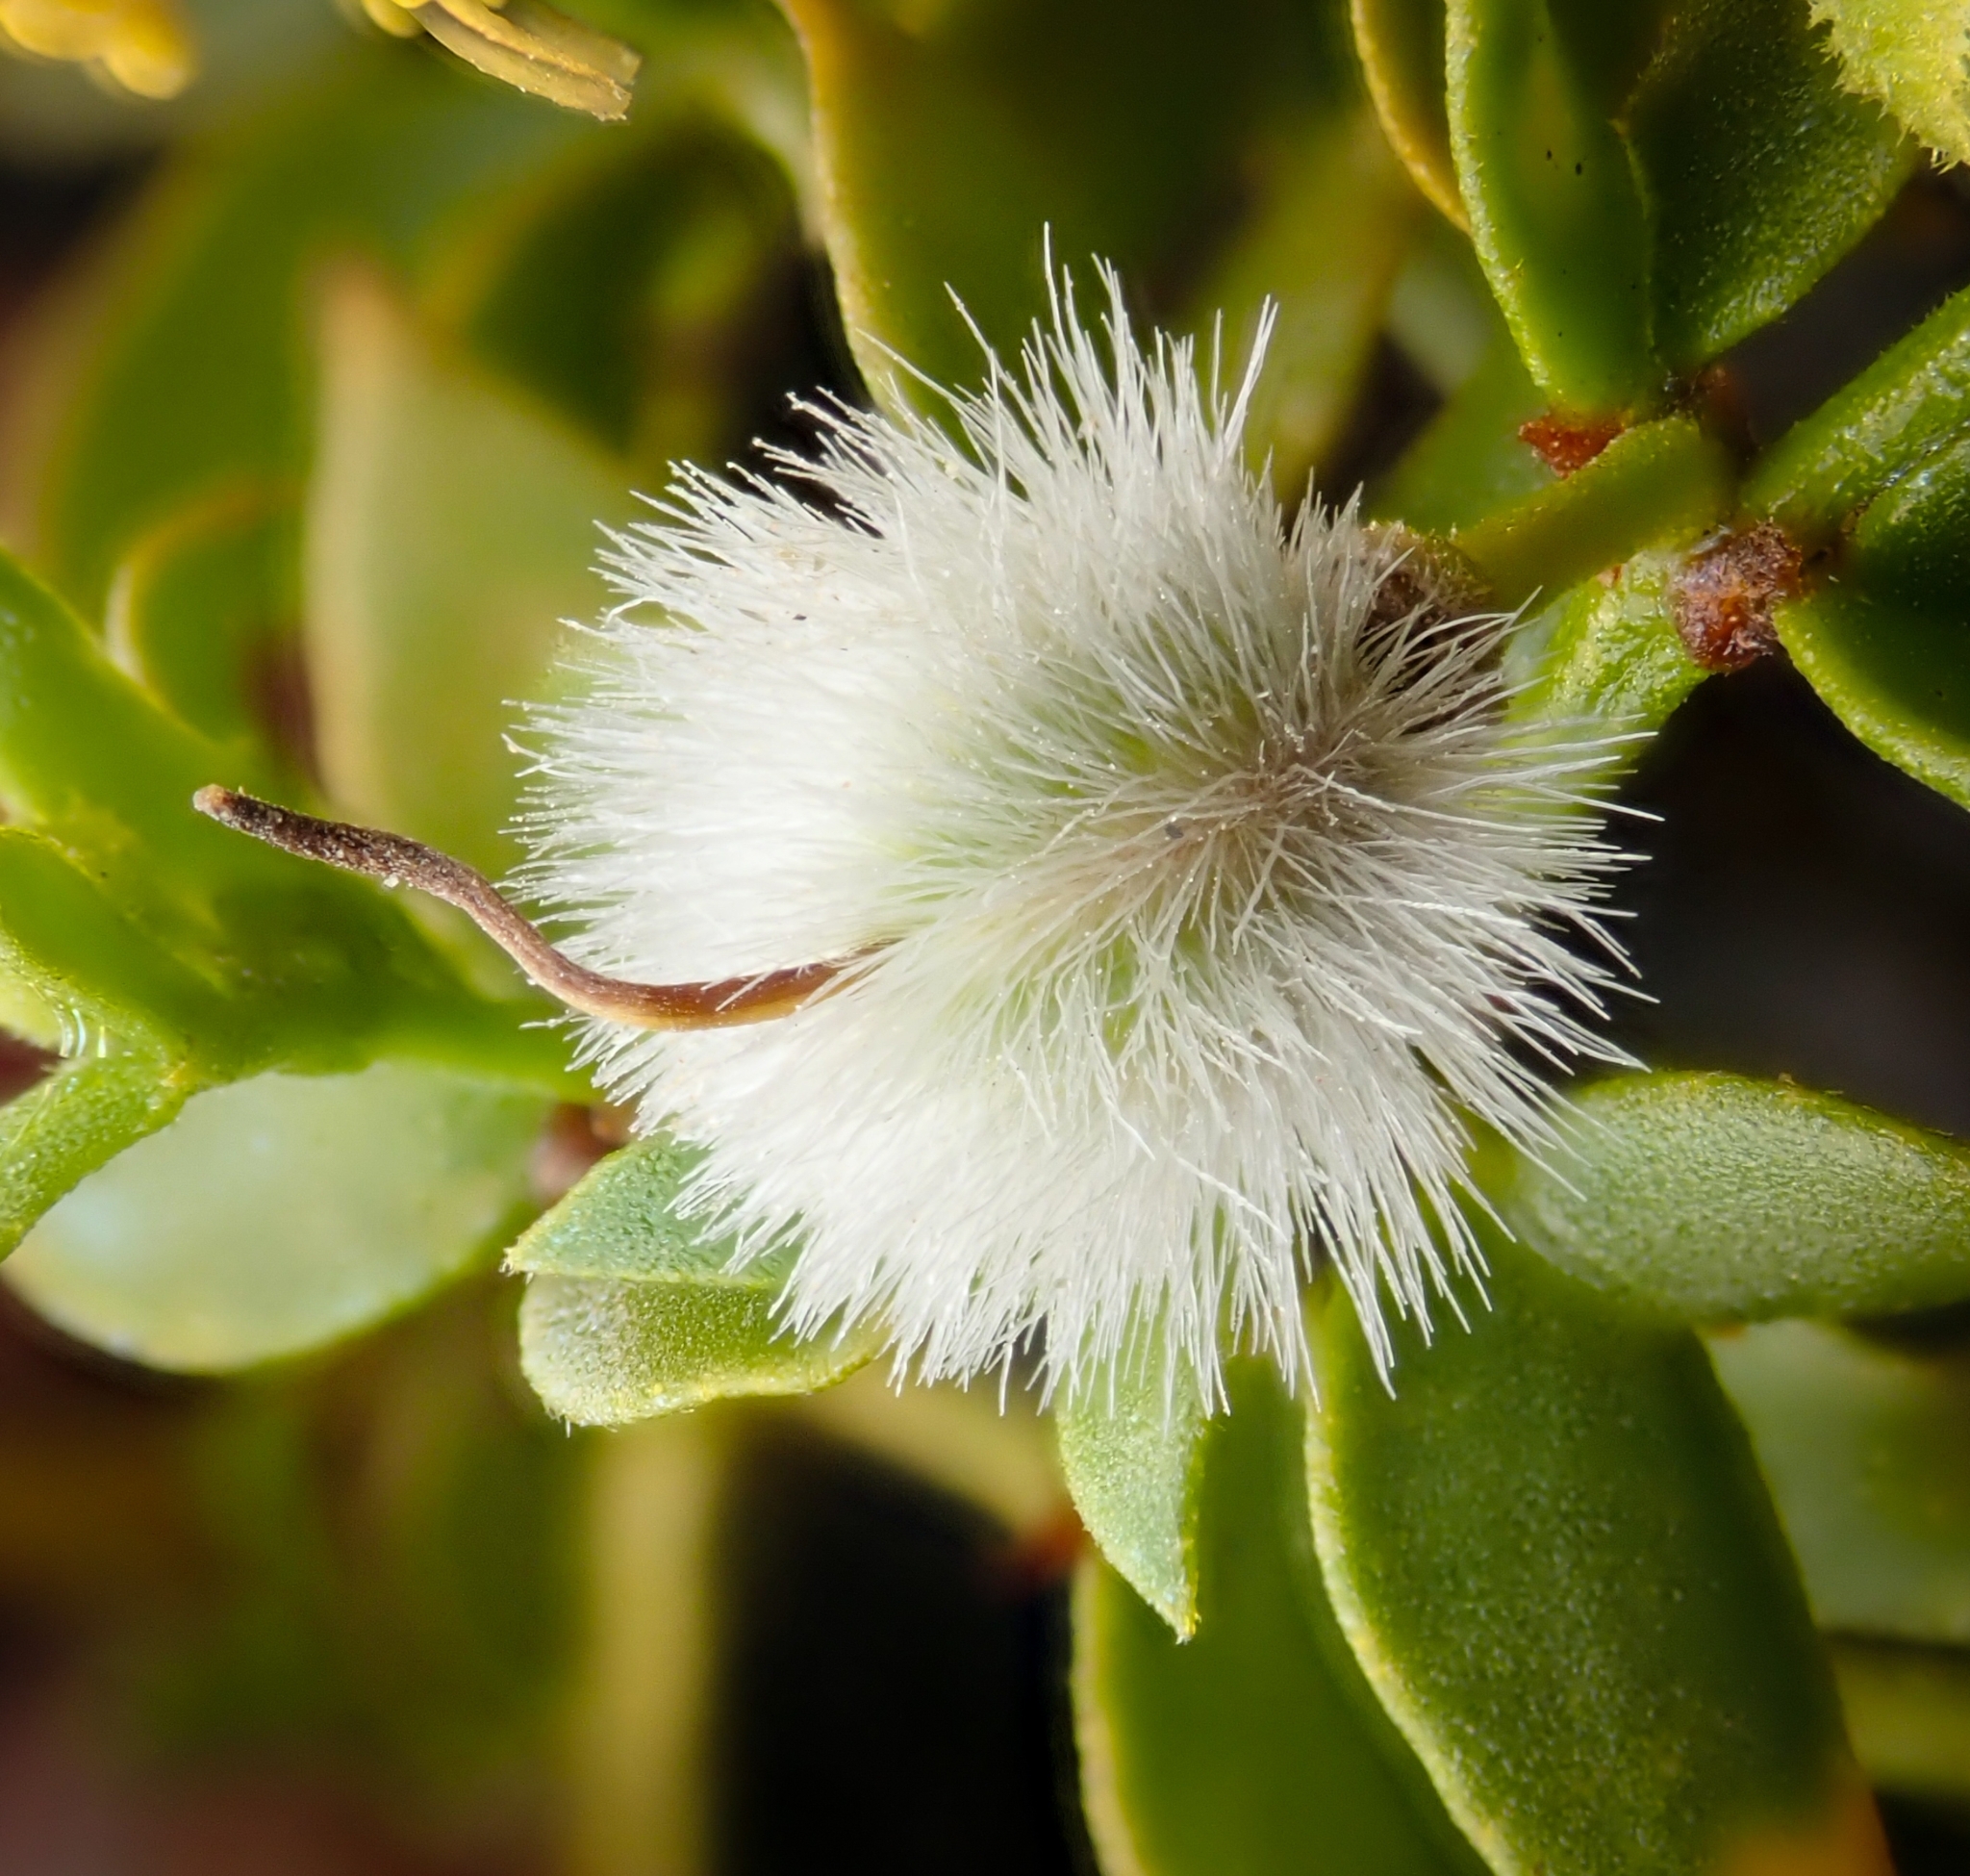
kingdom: Plantae
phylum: Tracheophyta
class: Magnoliopsida
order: Zygophyllales
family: Zygophyllaceae
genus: Larrea
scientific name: Larrea tridentata
